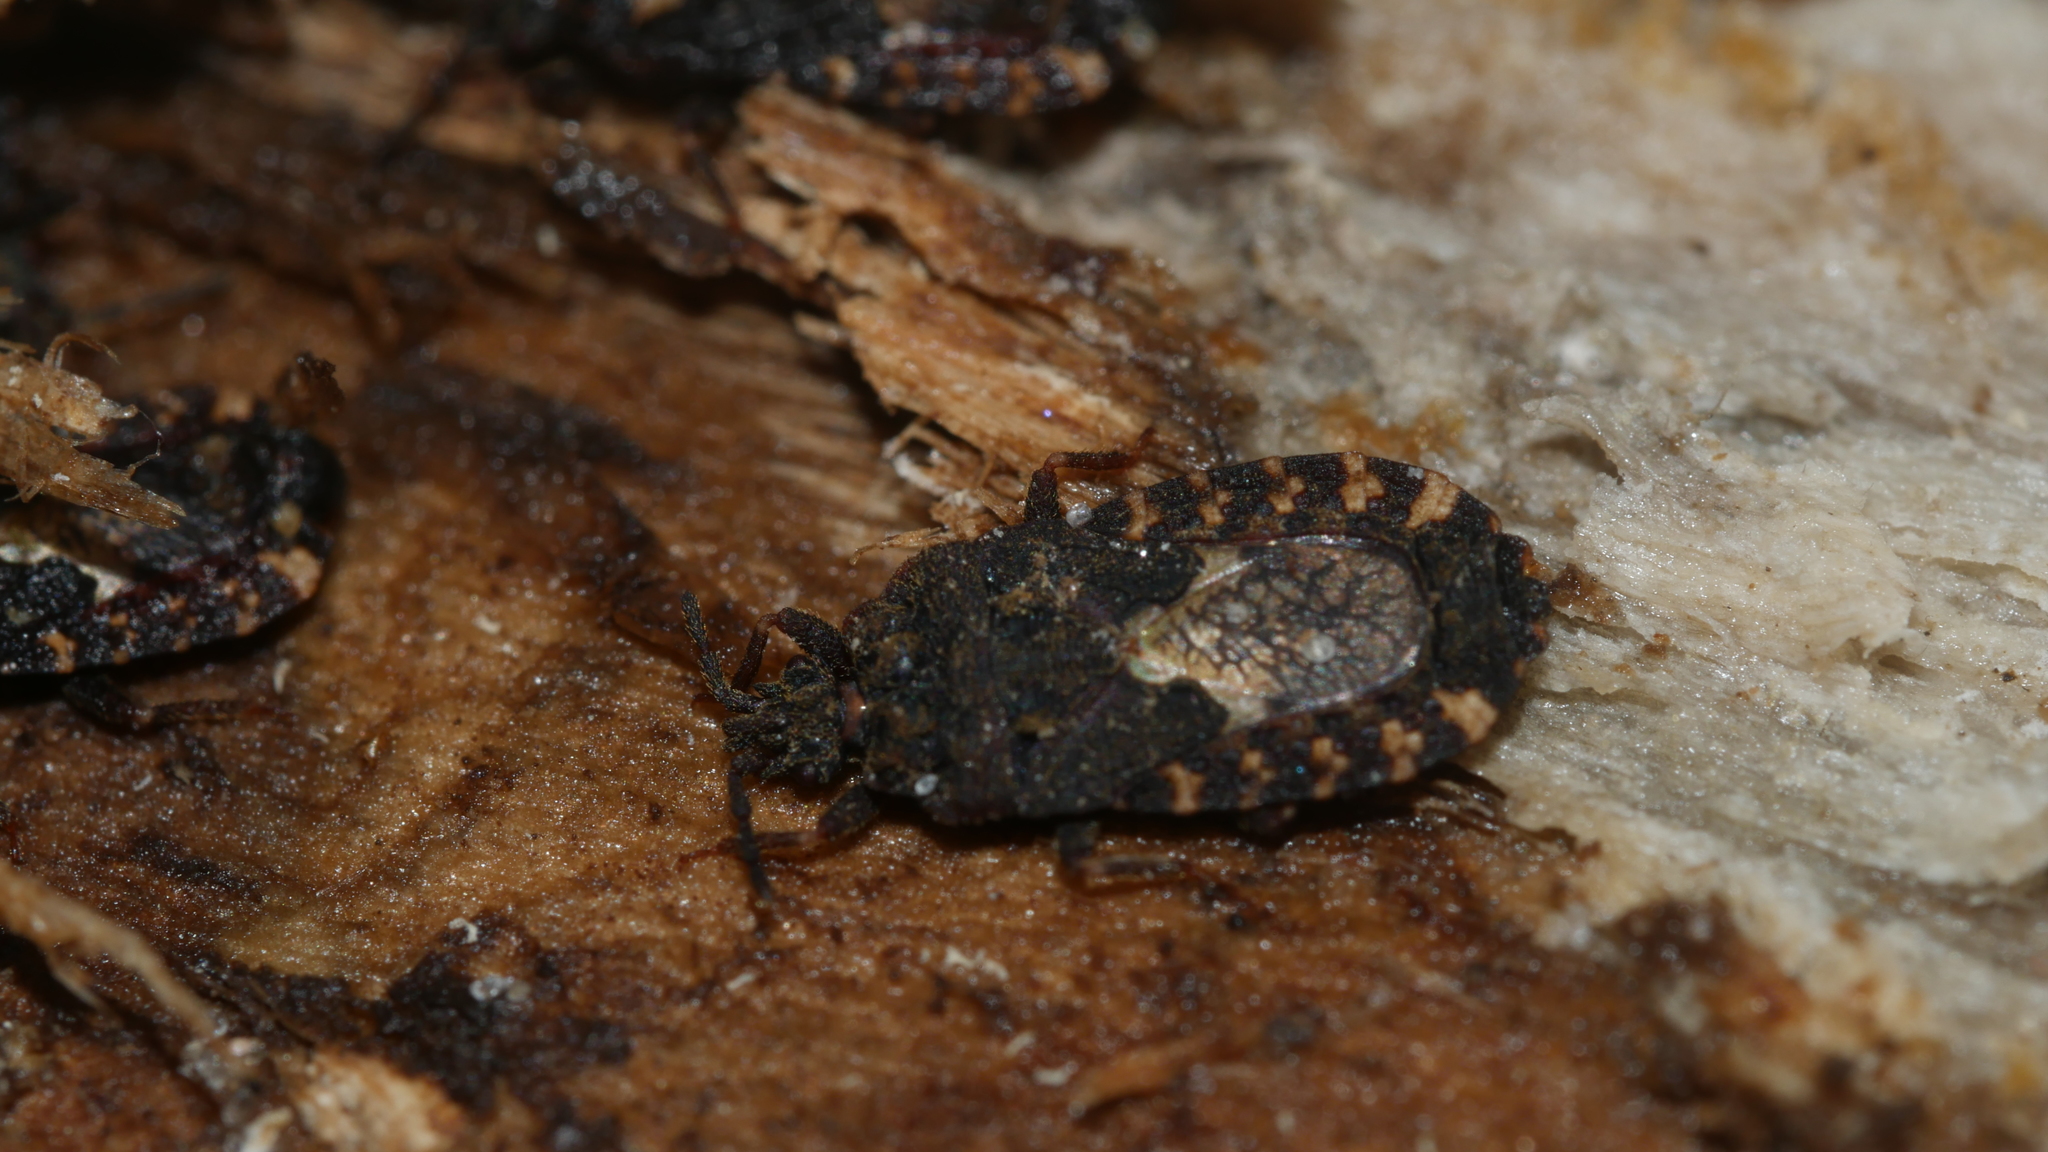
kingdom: Animalia
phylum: Arthropoda
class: Insecta
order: Hemiptera
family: Aradidae
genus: Mezira
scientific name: Mezira
